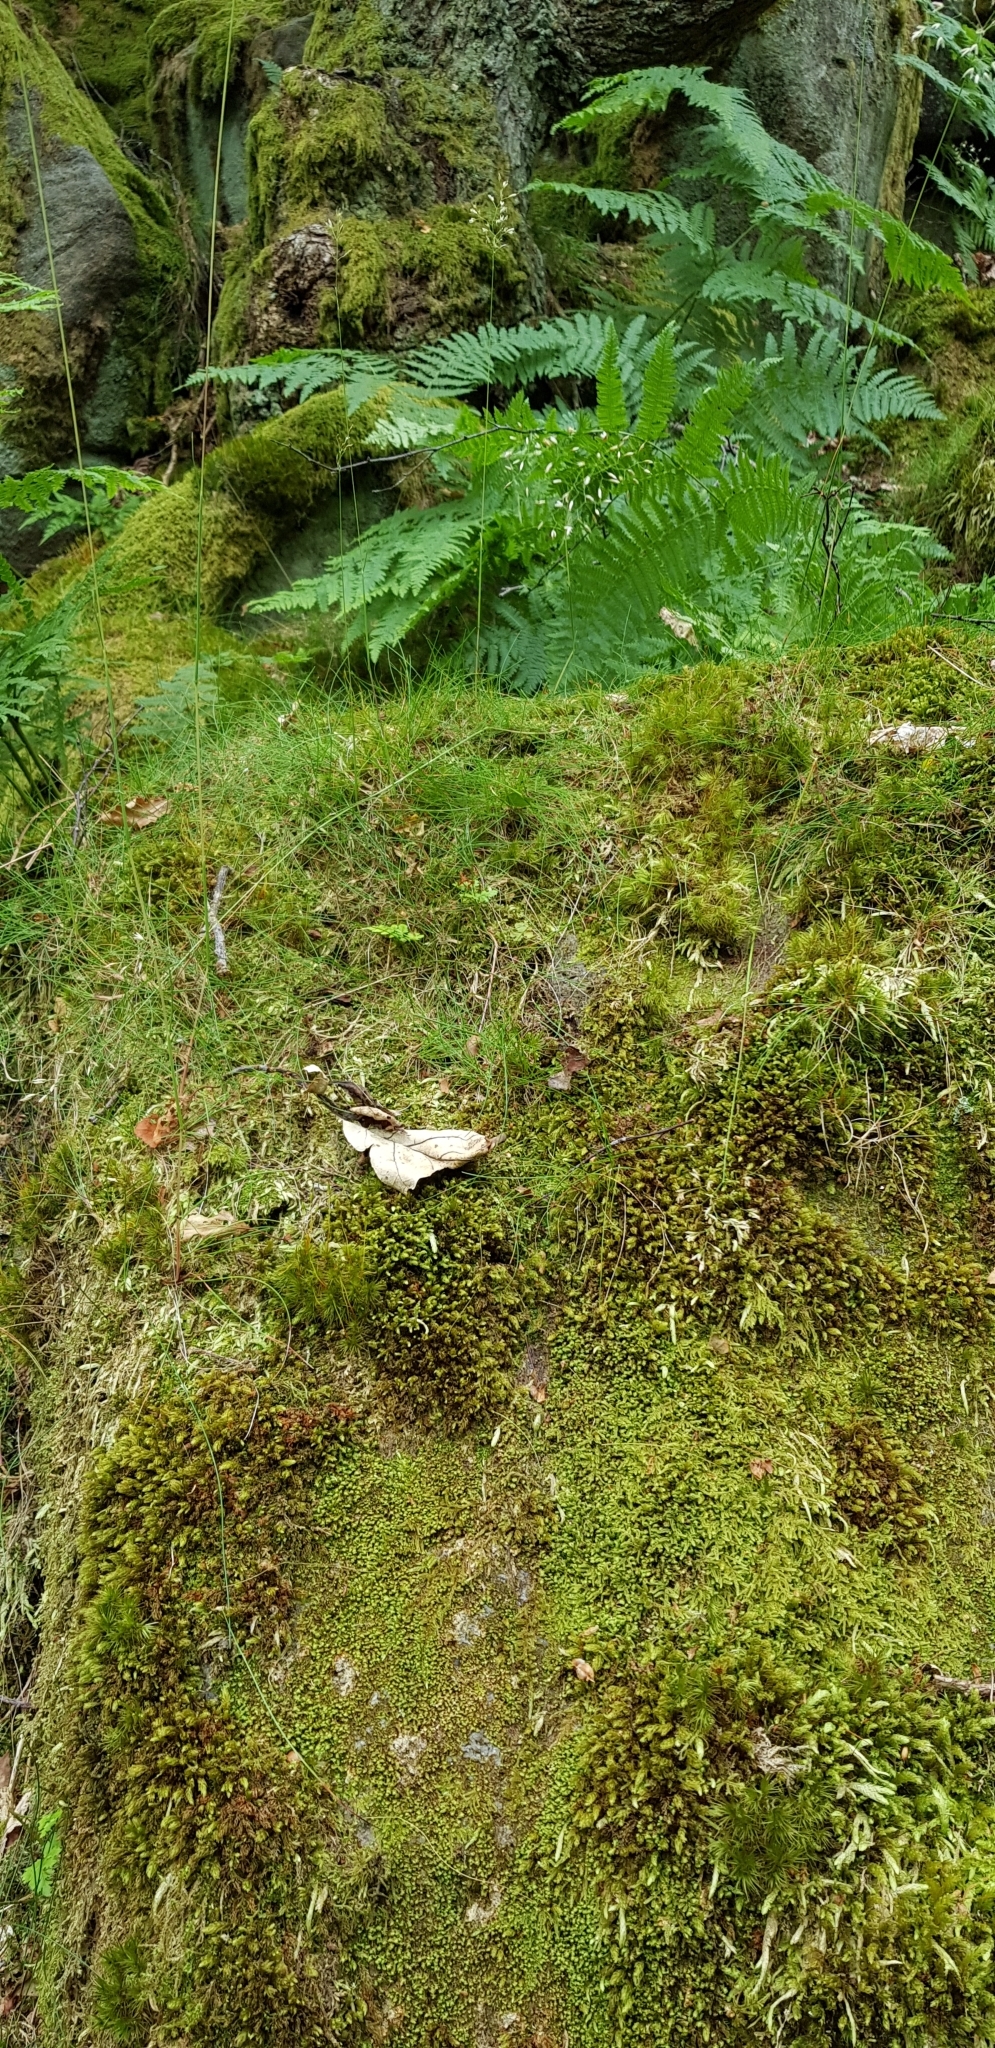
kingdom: Plantae
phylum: Marchantiophyta
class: Jungermanniopsida
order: Jungermanniales
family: Scapaniaceae
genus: Diplophyllum
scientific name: Diplophyllum albicans
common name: White earwort
